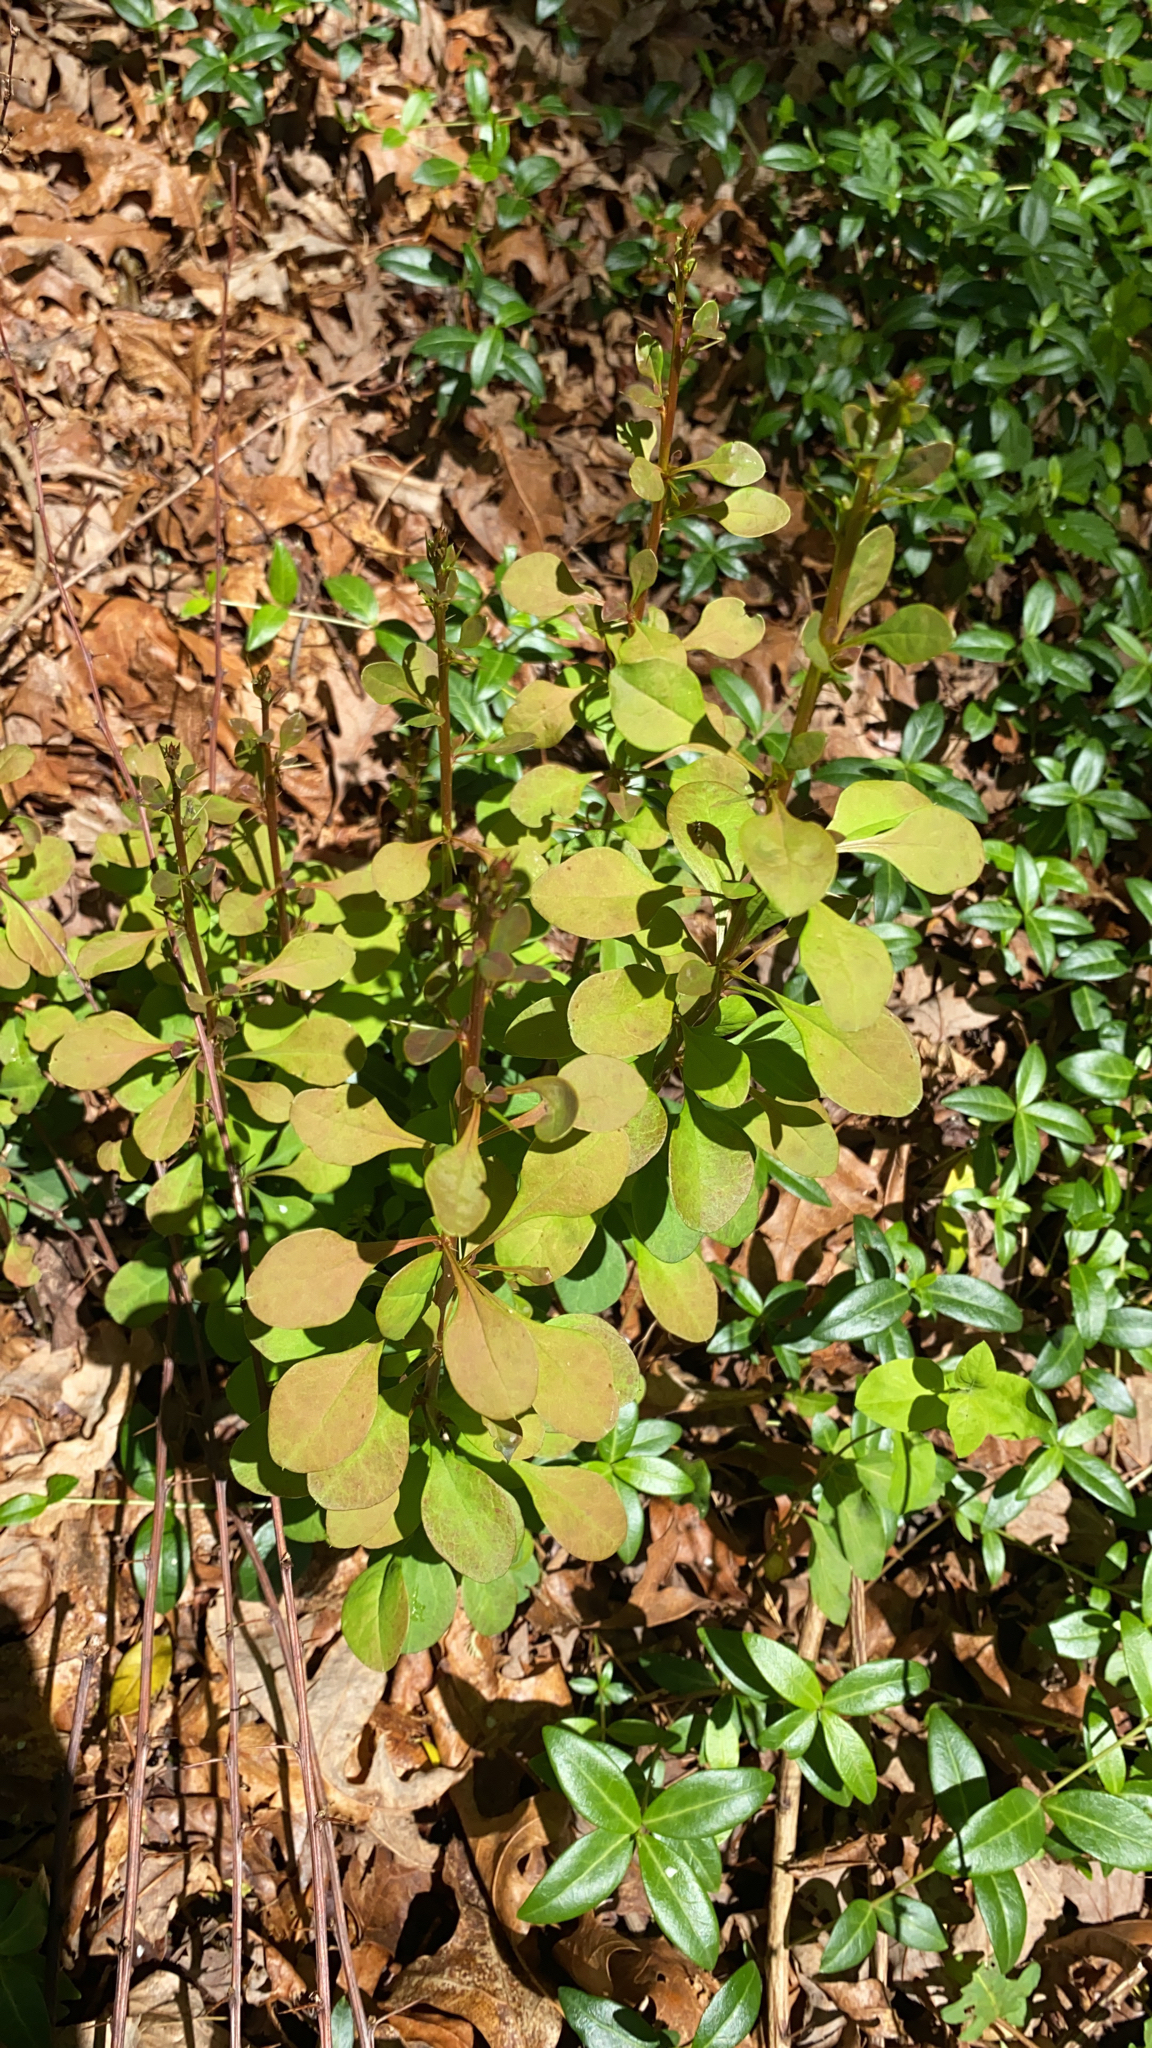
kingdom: Plantae
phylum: Tracheophyta
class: Magnoliopsida
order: Ranunculales
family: Berberidaceae
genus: Berberis
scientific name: Berberis thunbergii
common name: Japanese barberry
